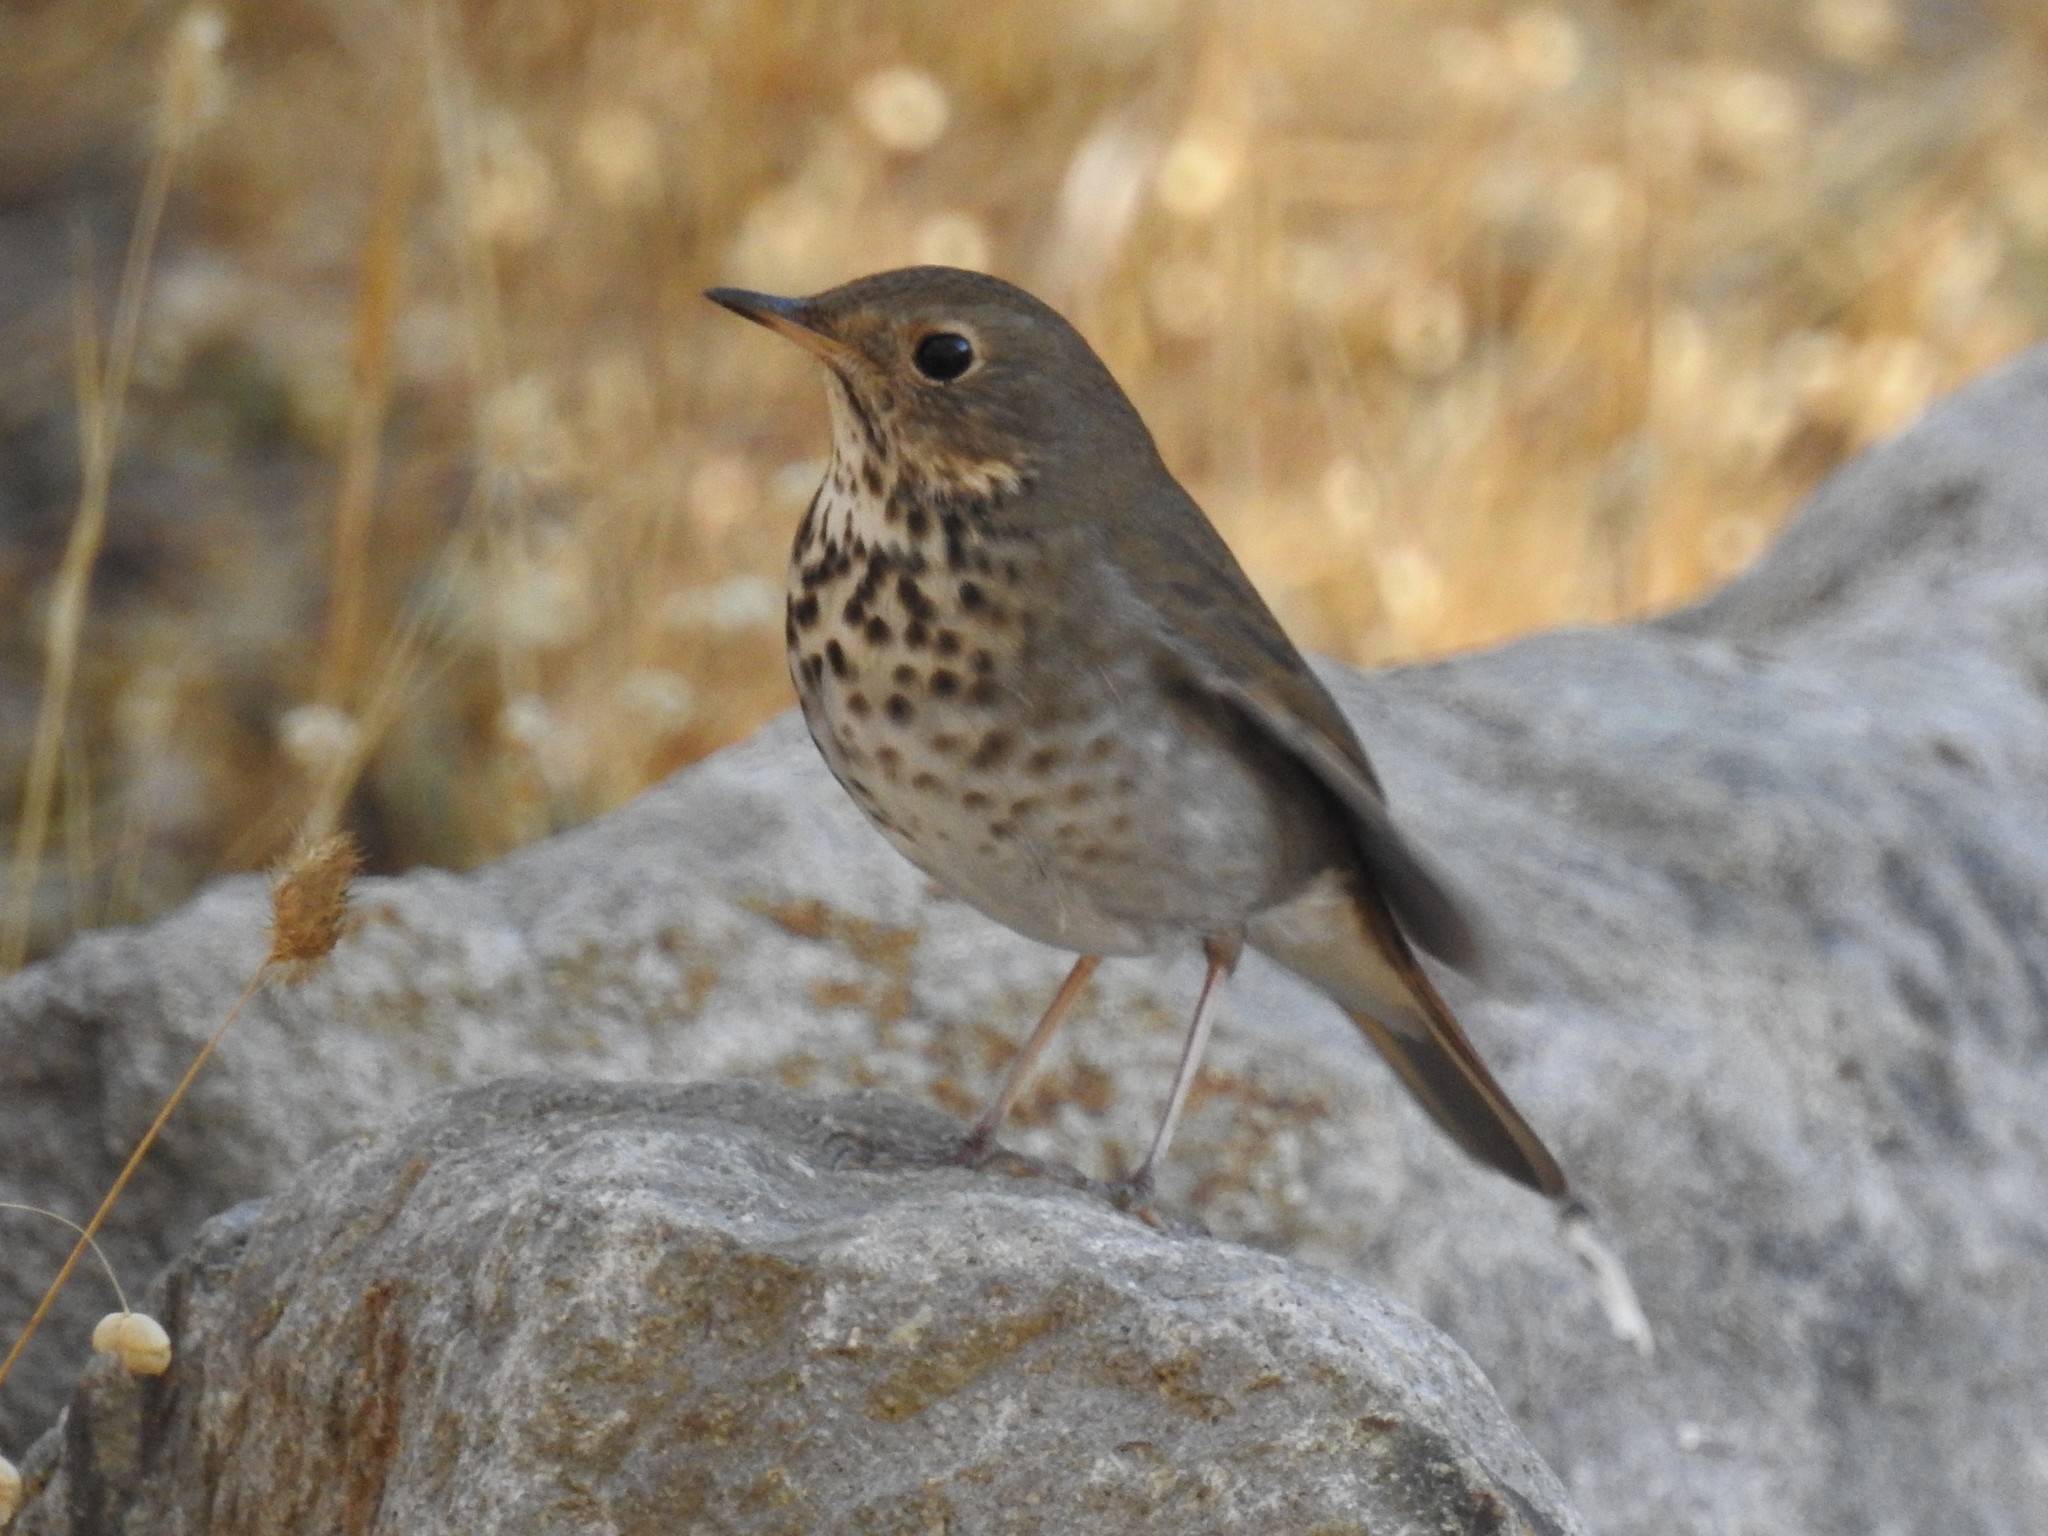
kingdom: Animalia
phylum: Chordata
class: Aves
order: Passeriformes
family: Turdidae
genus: Catharus
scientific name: Catharus guttatus
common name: Hermit thrush
